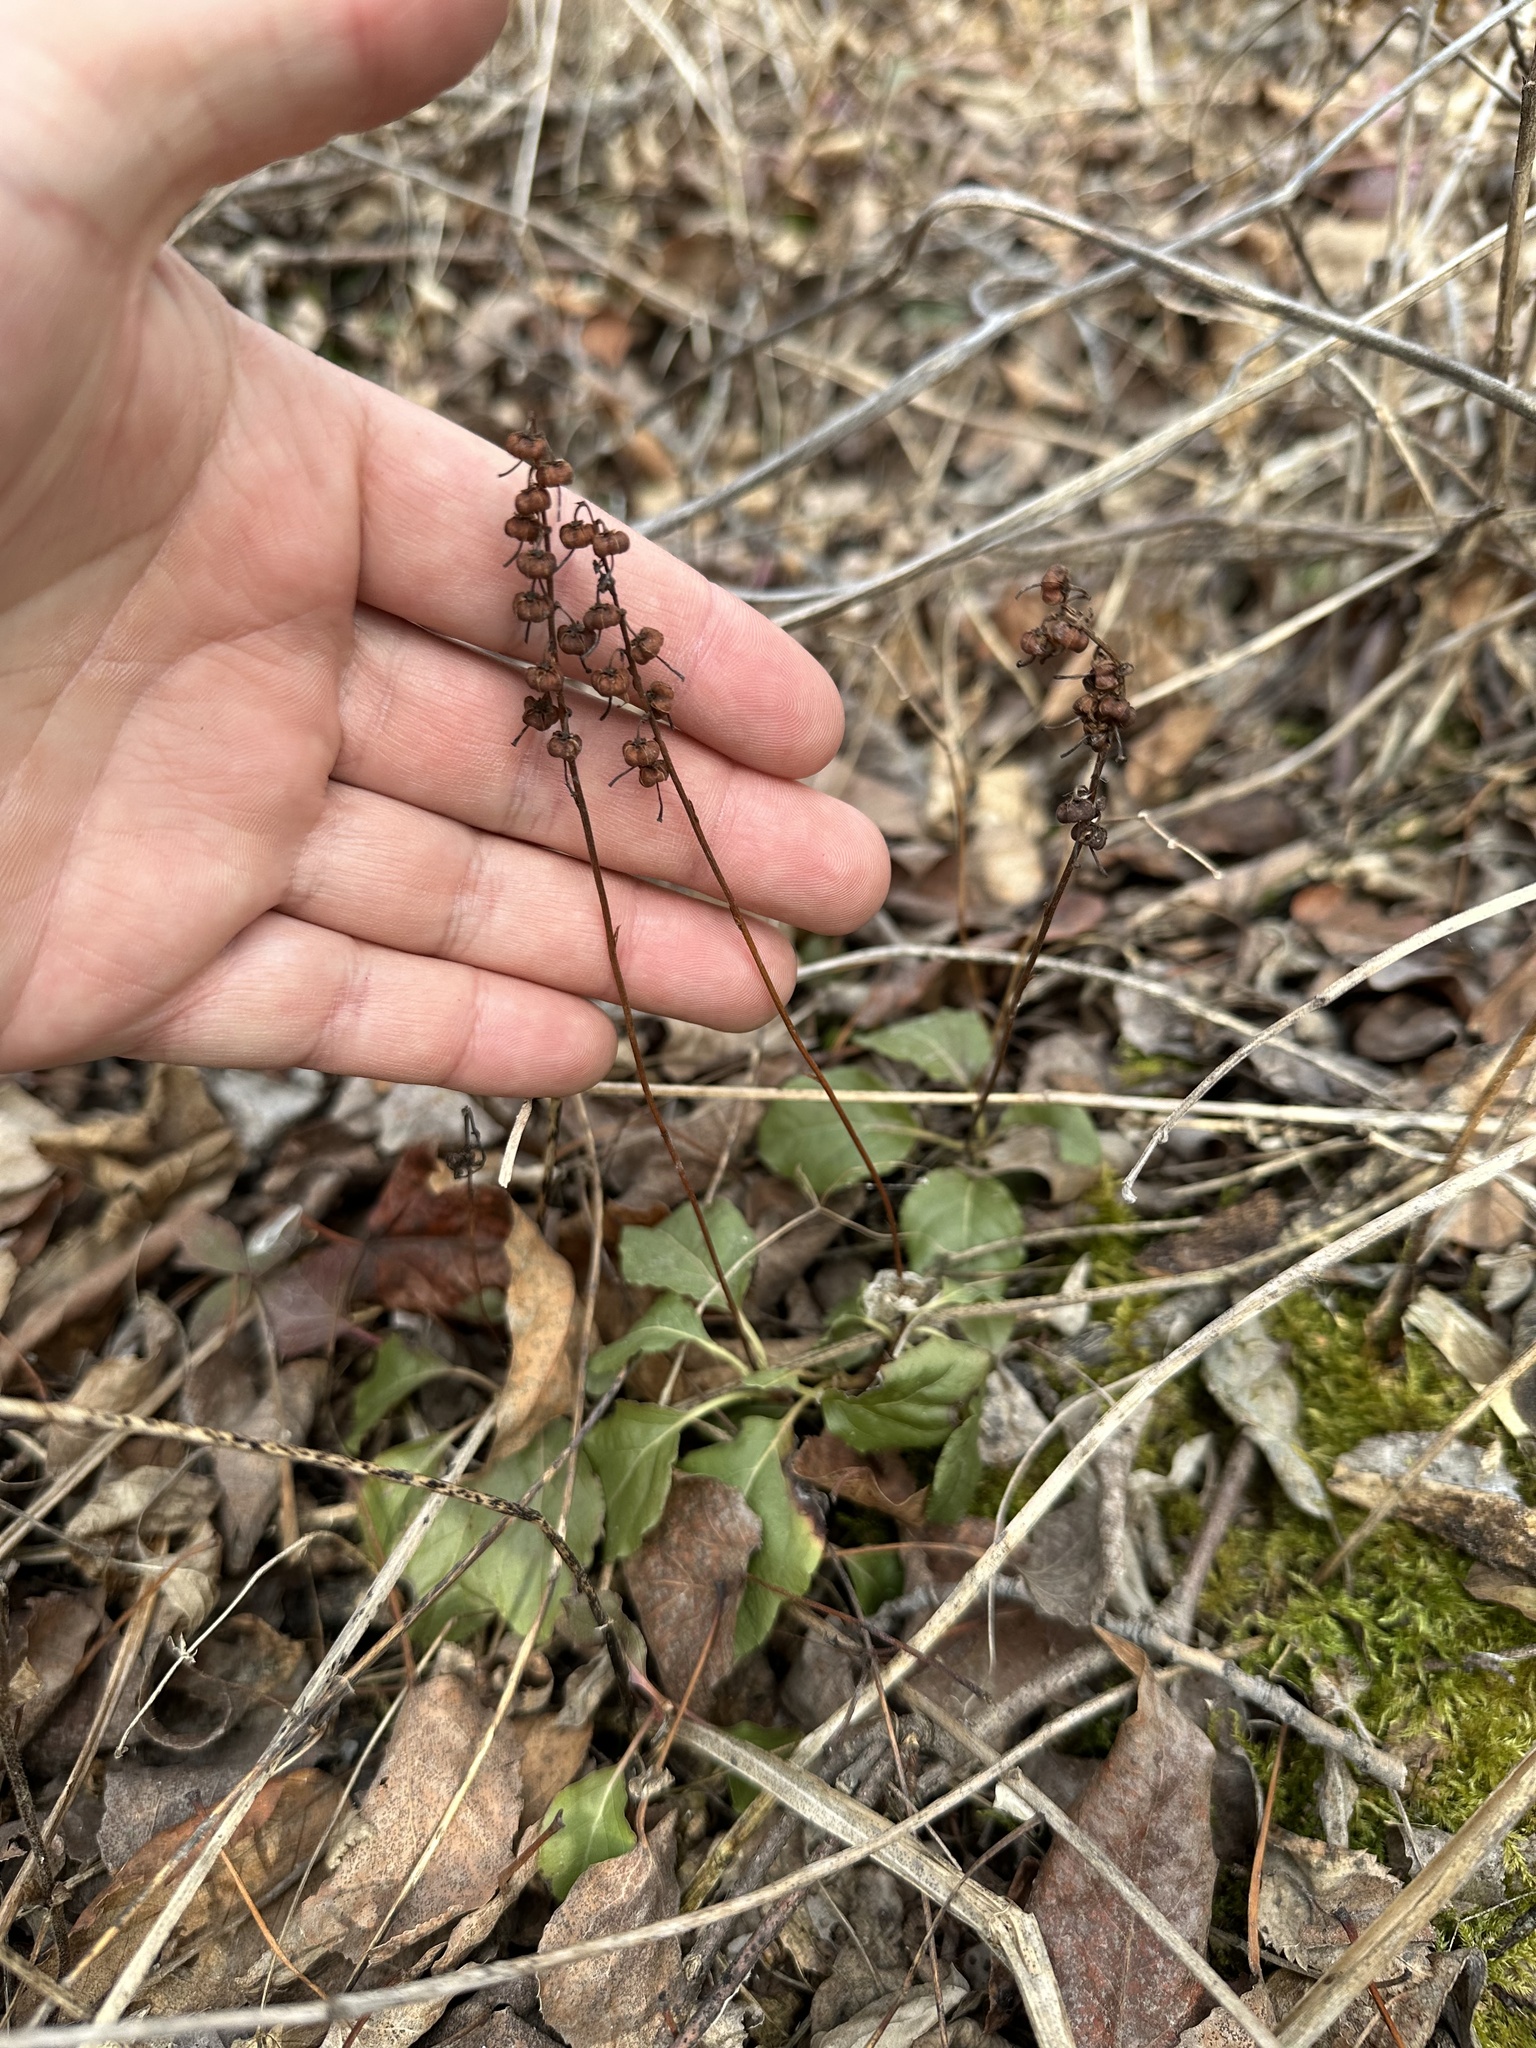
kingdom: Plantae
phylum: Tracheophyta
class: Magnoliopsida
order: Ericales
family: Ericaceae
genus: Orthilia
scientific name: Orthilia secunda
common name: One-sided orthilia
